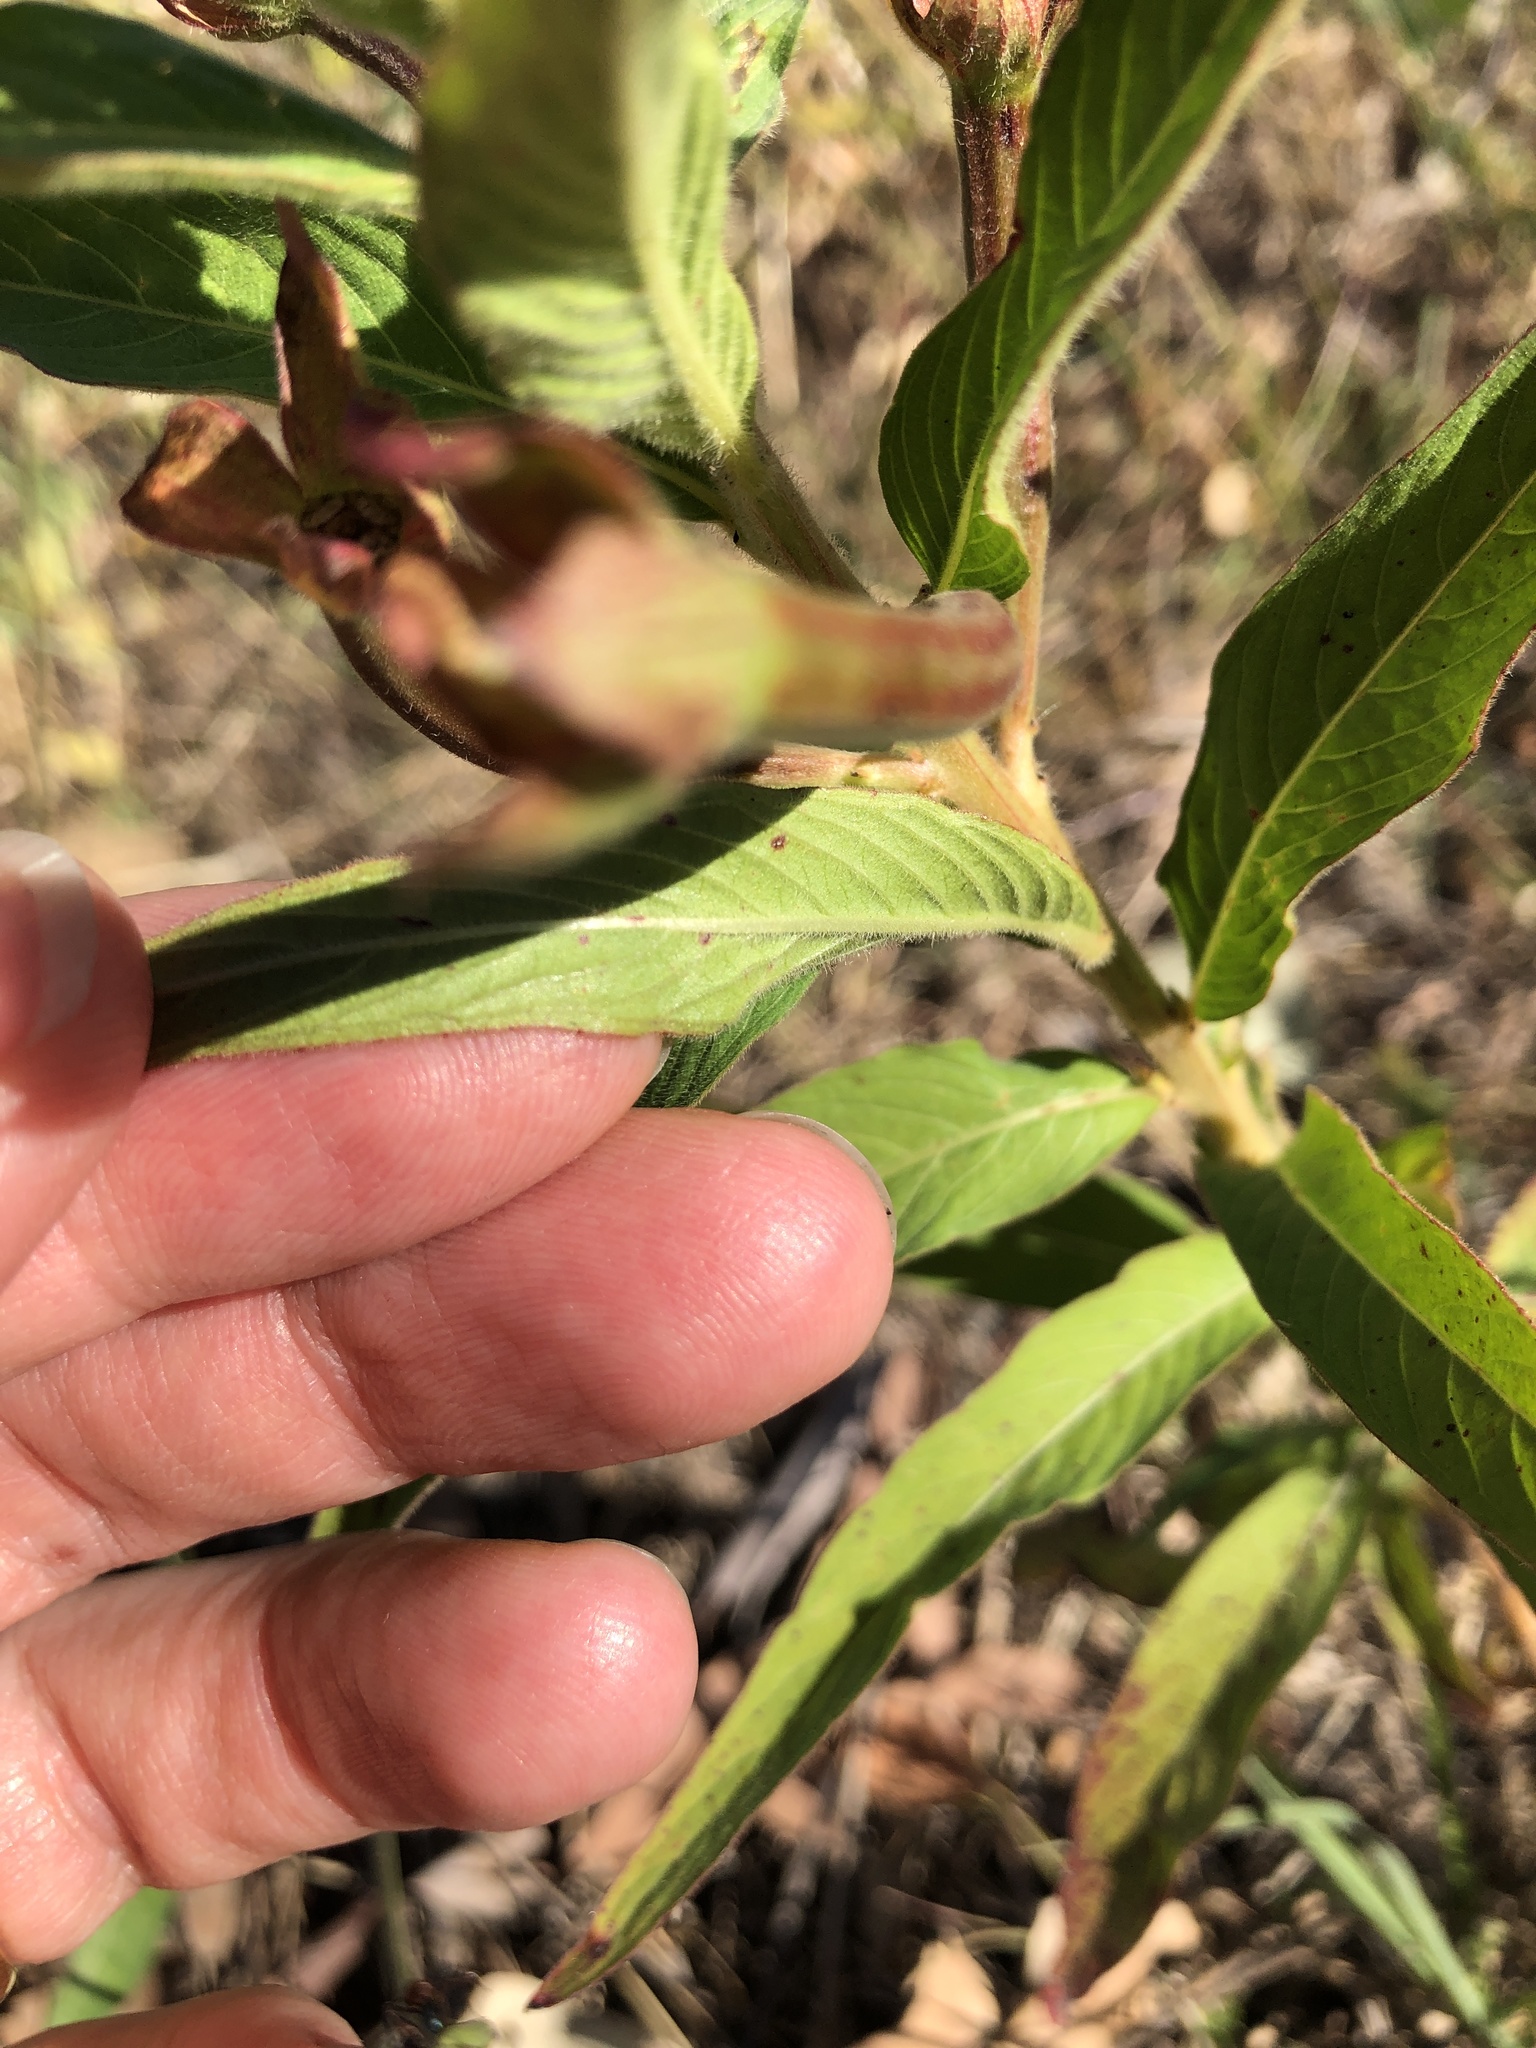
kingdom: Plantae
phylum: Tracheophyta
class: Magnoliopsida
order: Myrtales
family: Onagraceae
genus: Ludwigia
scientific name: Ludwigia octovalvis
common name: Water-primrose
